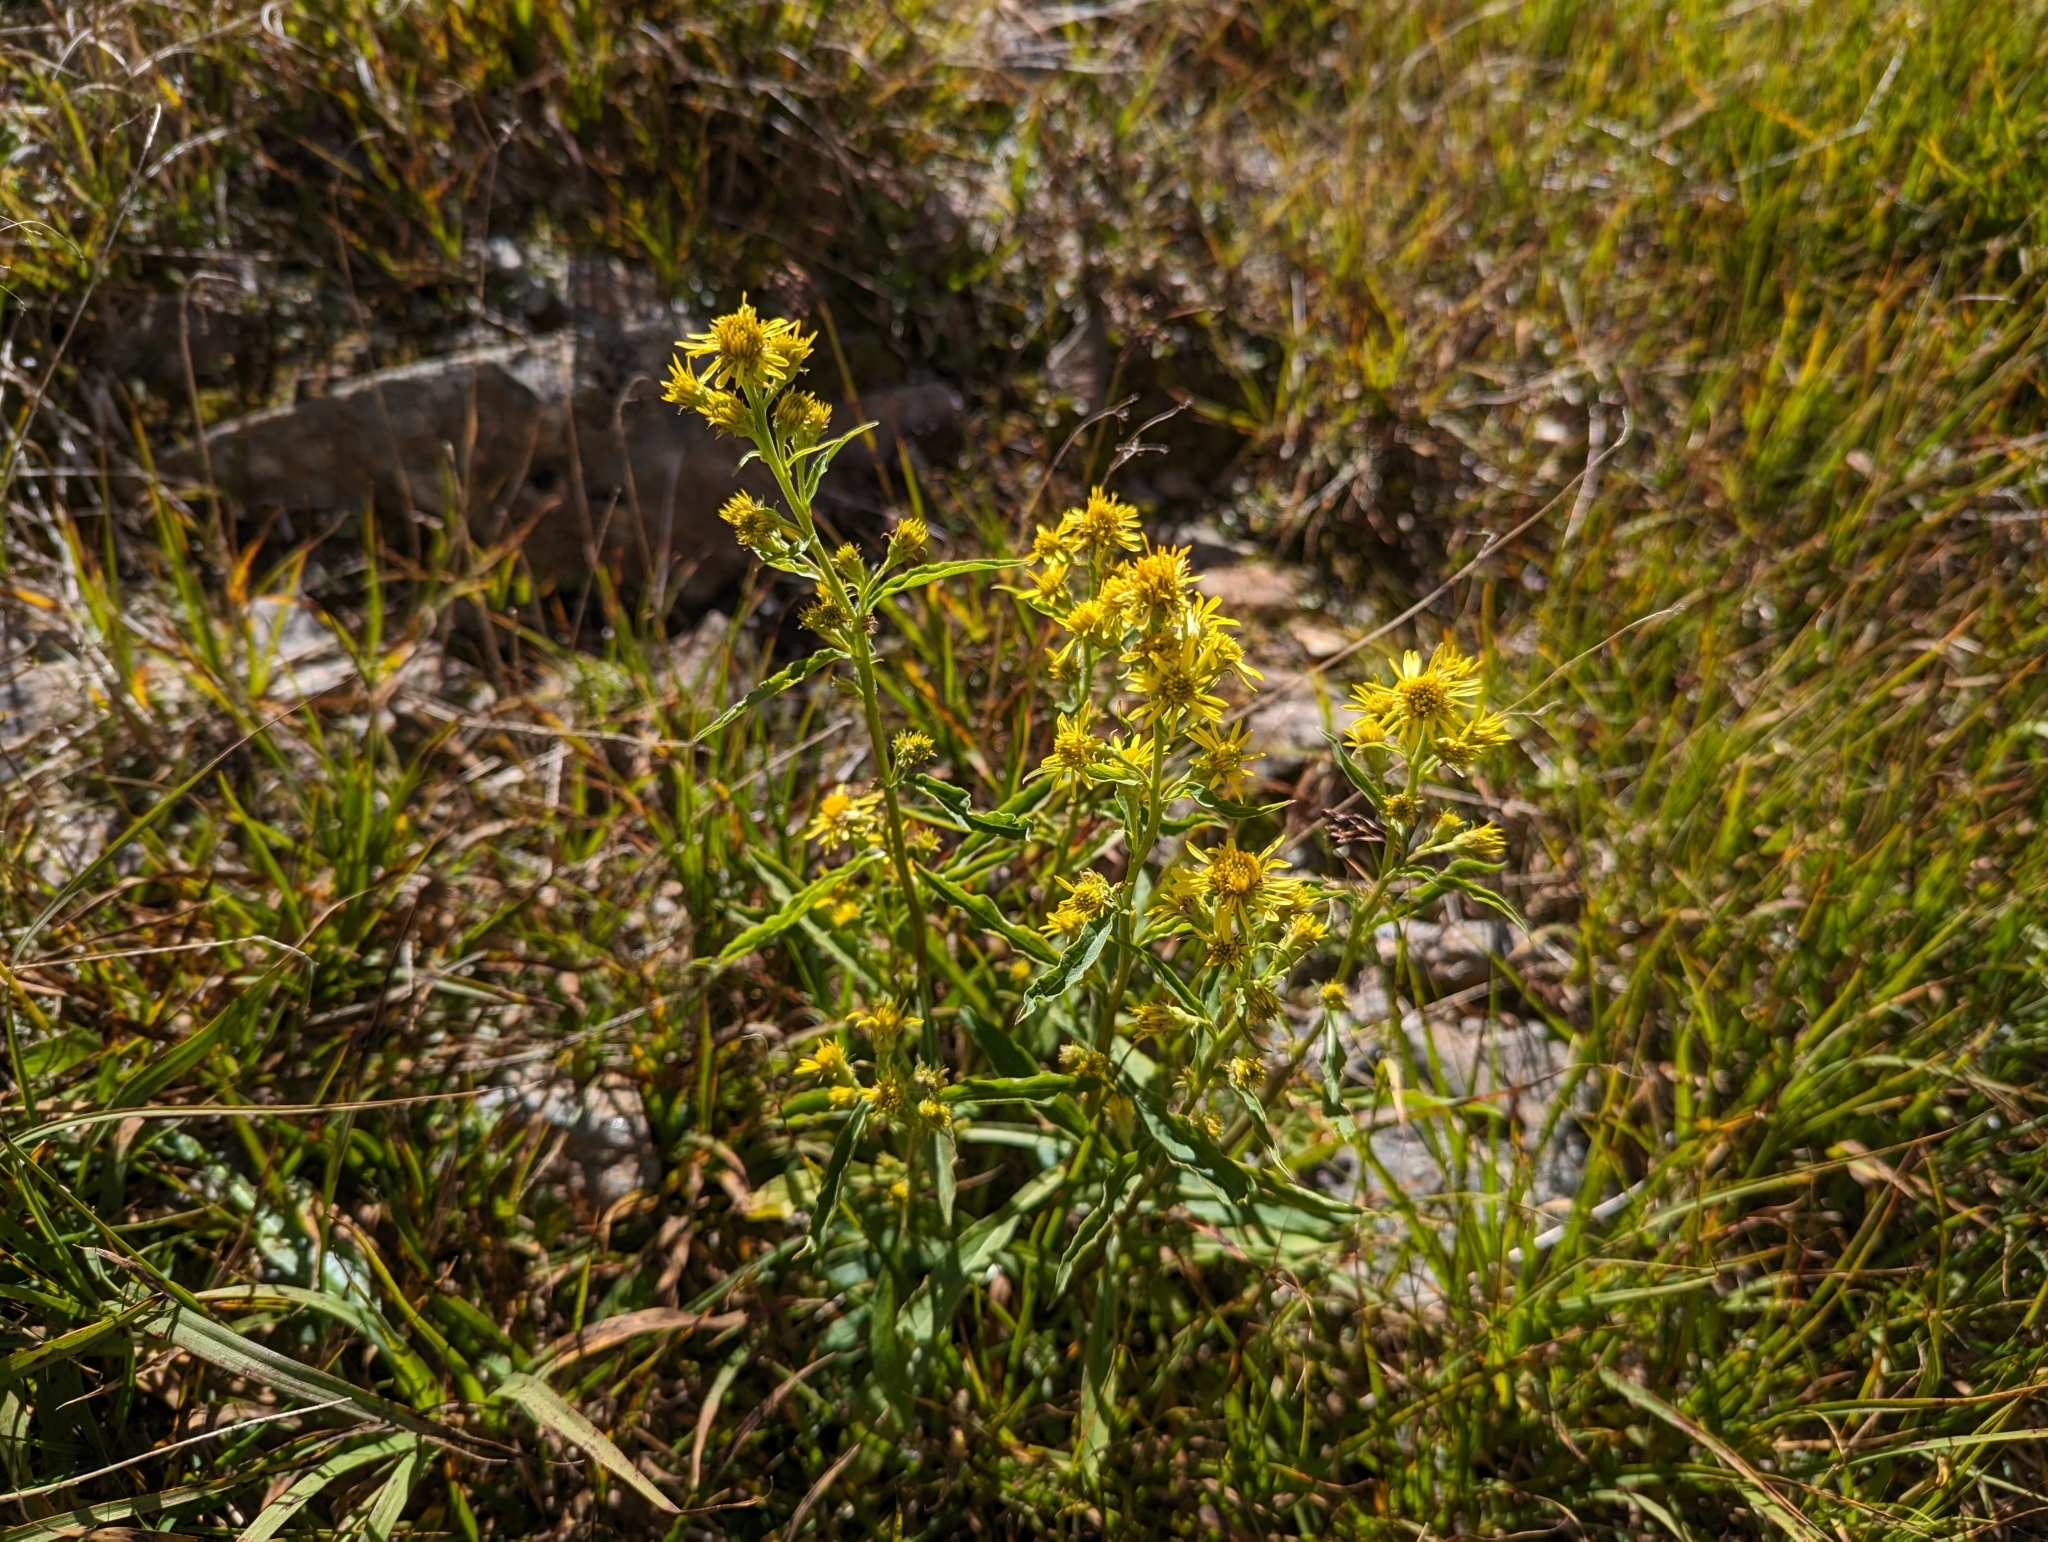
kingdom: Plantae
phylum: Tracheophyta
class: Magnoliopsida
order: Asterales
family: Asteraceae
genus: Solidago
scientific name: Solidago virgaurea
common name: Goldenrod
